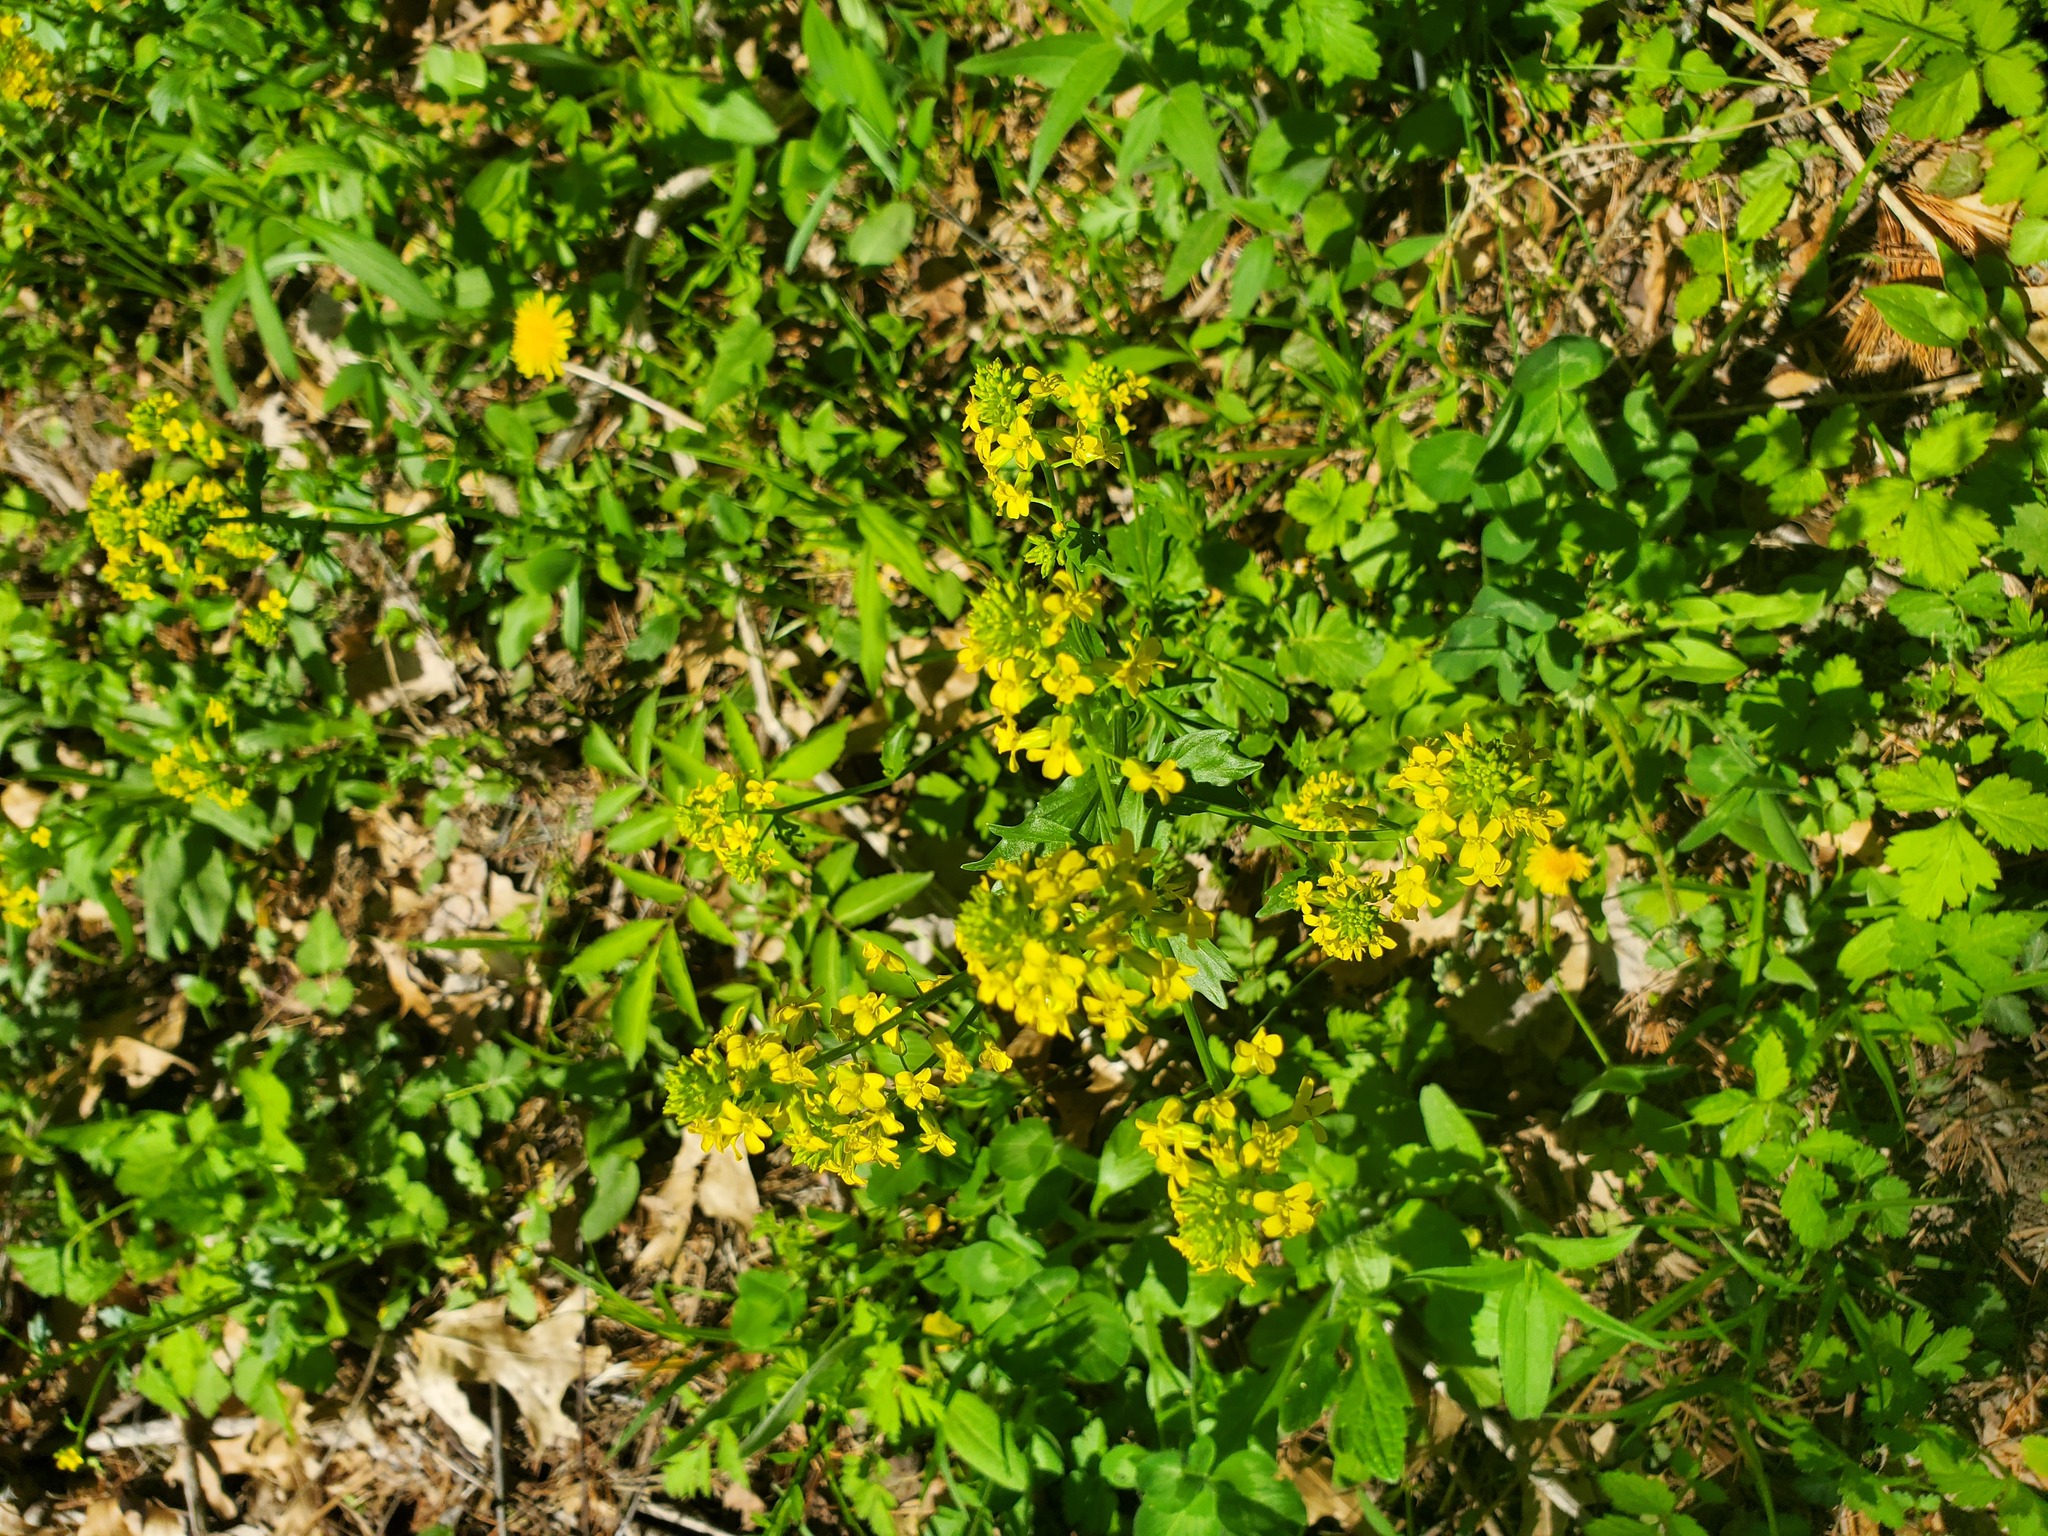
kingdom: Plantae
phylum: Tracheophyta
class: Magnoliopsida
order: Brassicales
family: Brassicaceae
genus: Barbarea
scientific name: Barbarea vulgaris
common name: Cressy-greens
